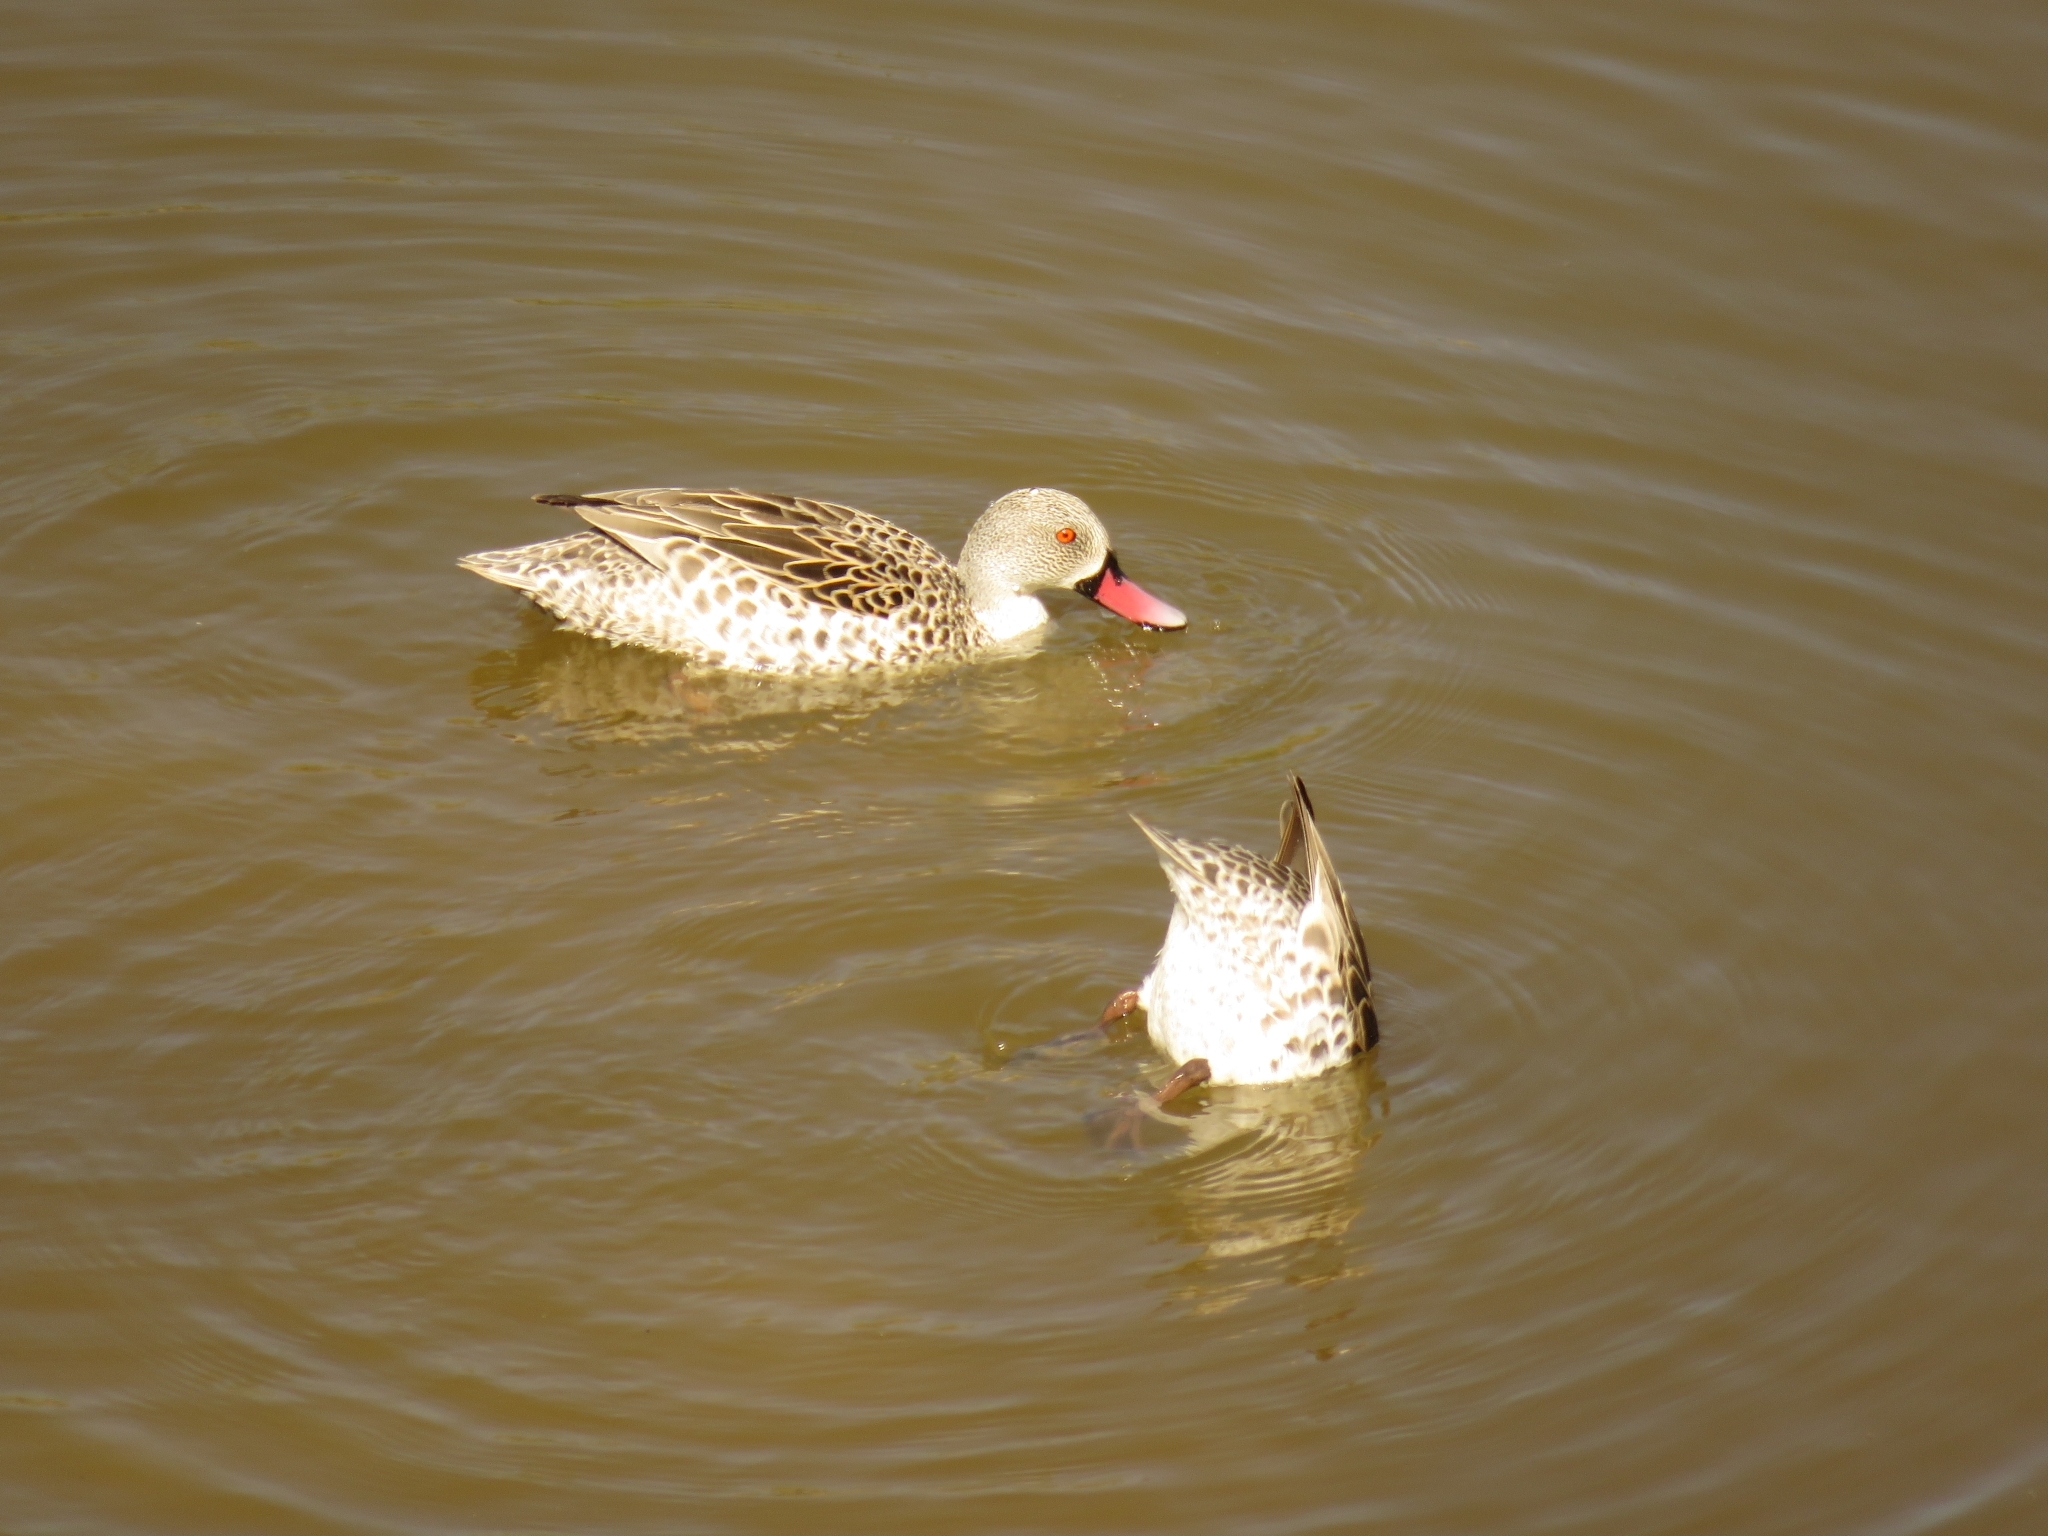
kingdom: Animalia
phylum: Chordata
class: Aves
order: Anseriformes
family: Anatidae
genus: Anas
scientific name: Anas capensis
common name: Cape teal
